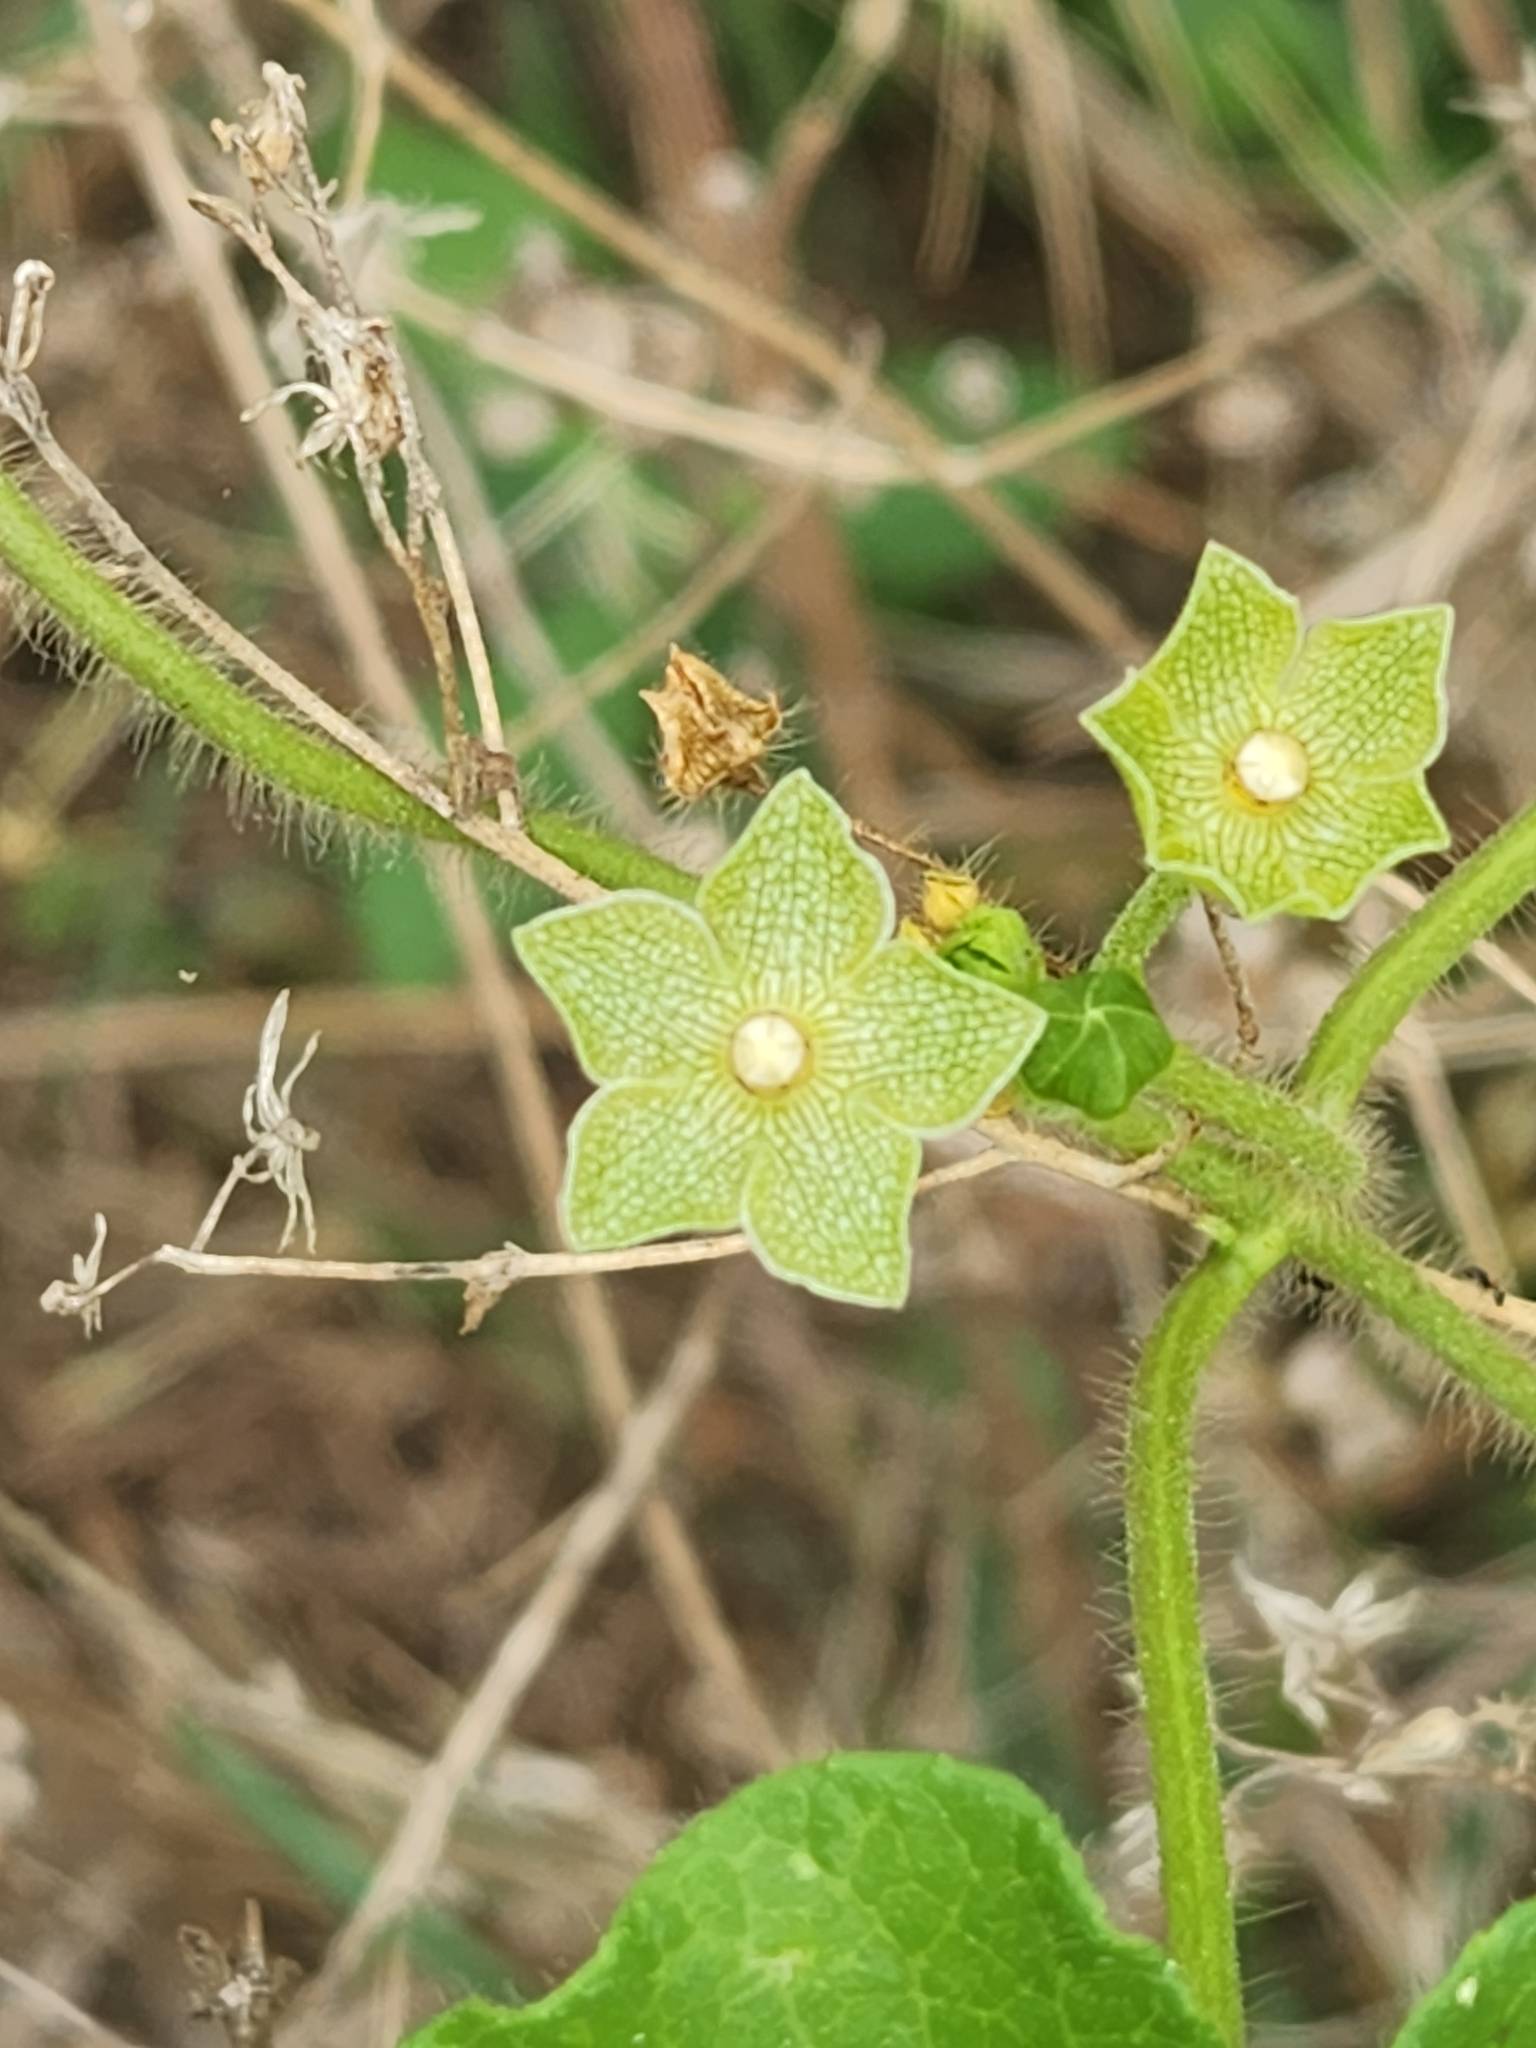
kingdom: Plantae
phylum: Tracheophyta
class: Magnoliopsida
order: Gentianales
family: Apocynaceae
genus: Dictyanthus
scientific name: Dictyanthus reticulatus
